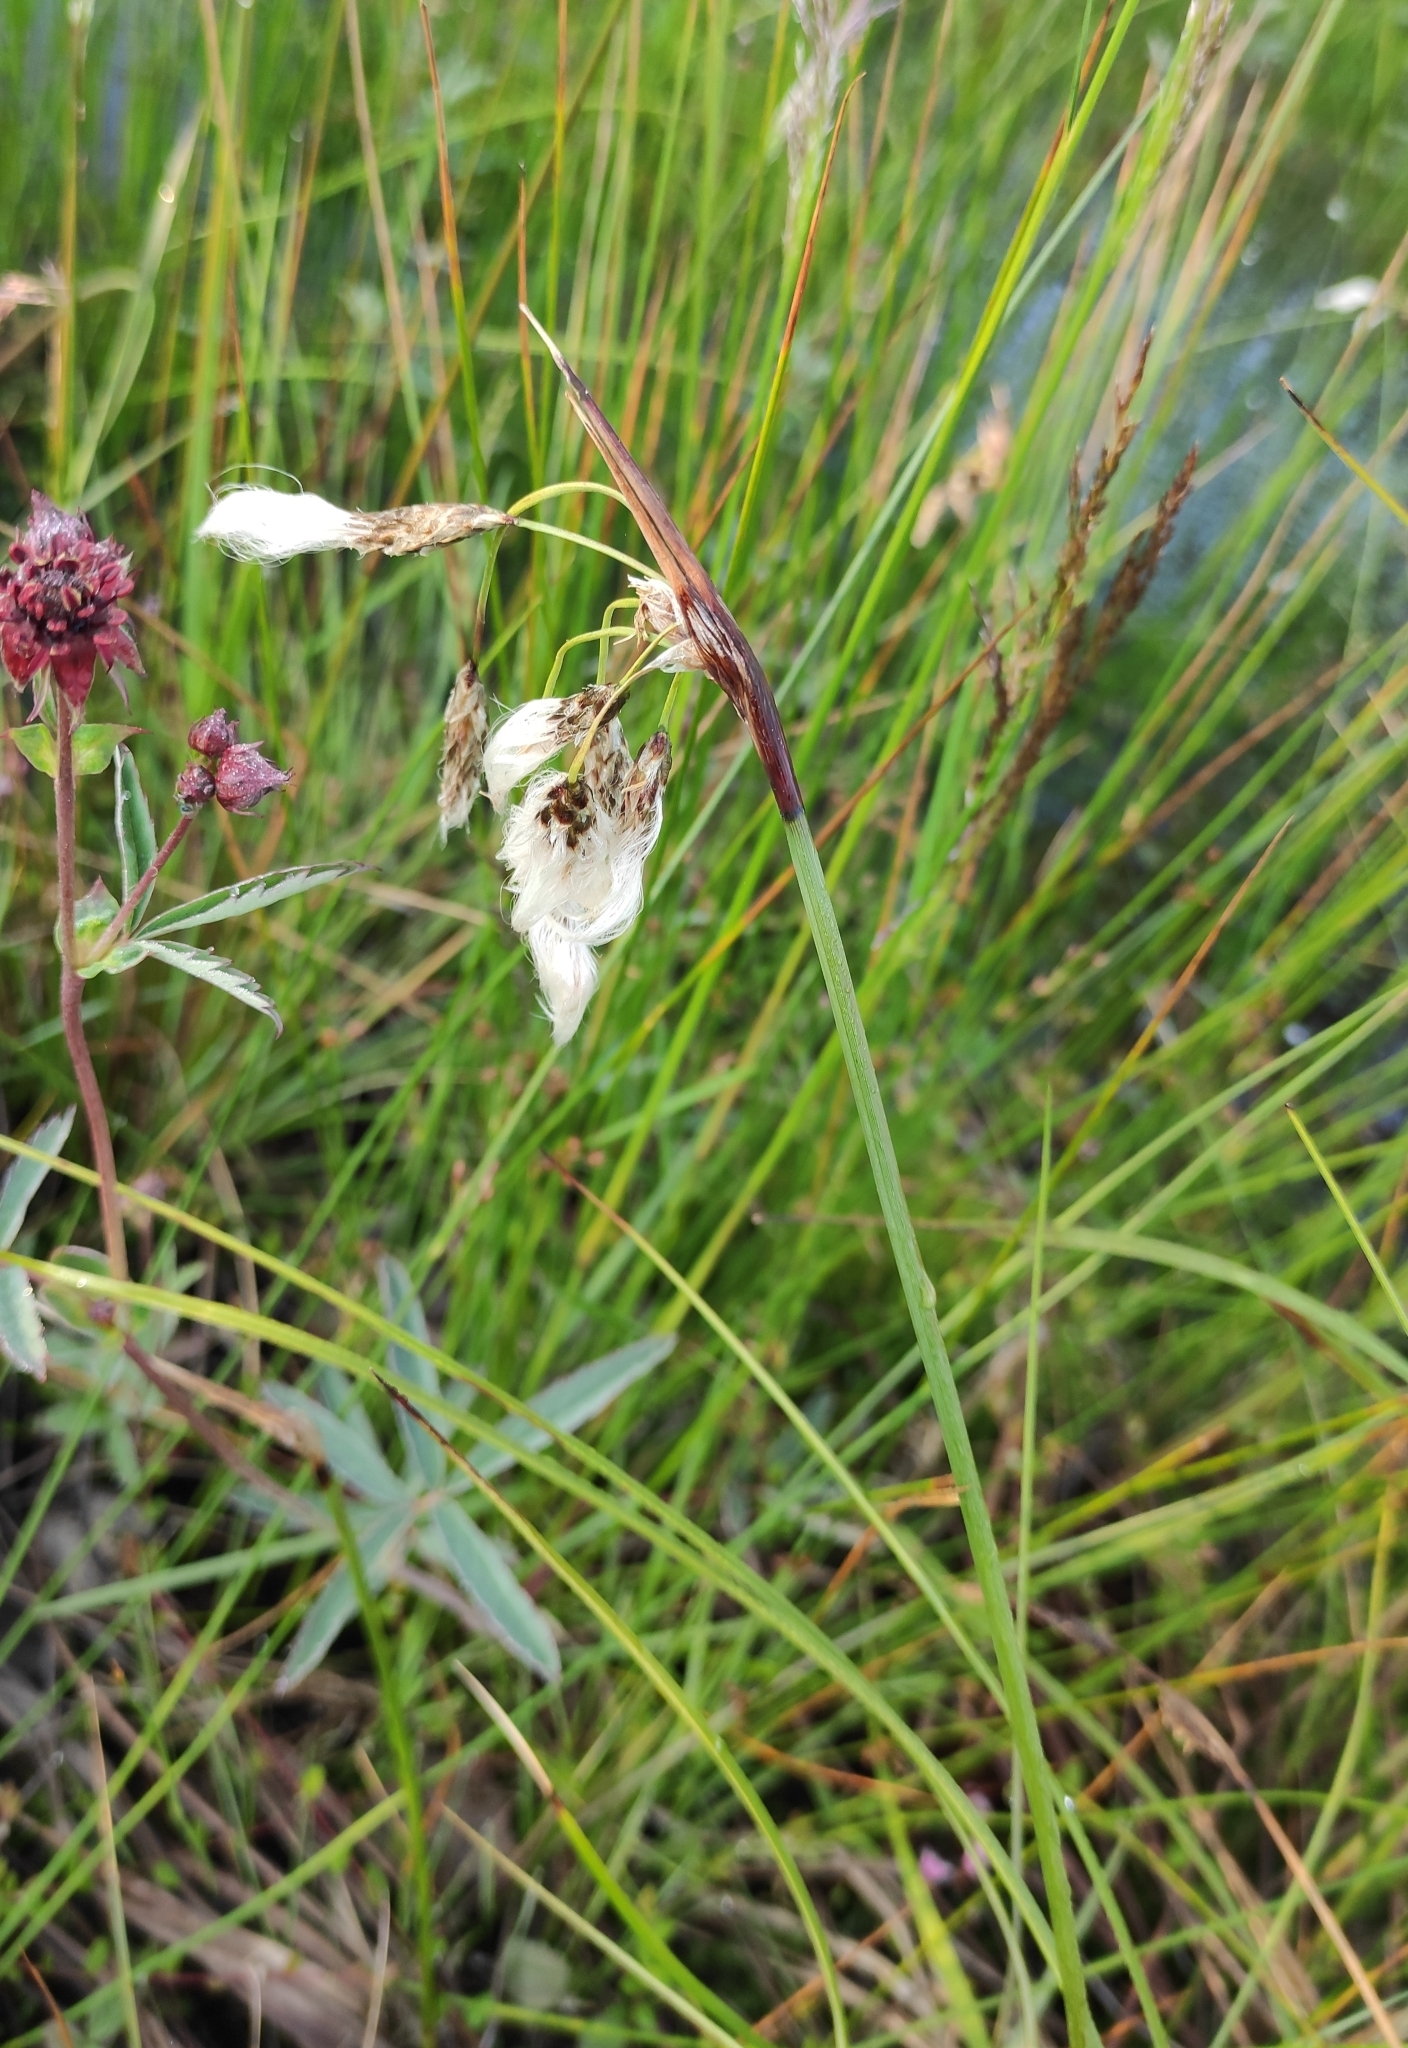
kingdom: Plantae
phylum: Tracheophyta
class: Liliopsida
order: Poales
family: Cyperaceae
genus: Eriophorum
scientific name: Eriophorum angustifolium
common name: Common cottongrass
